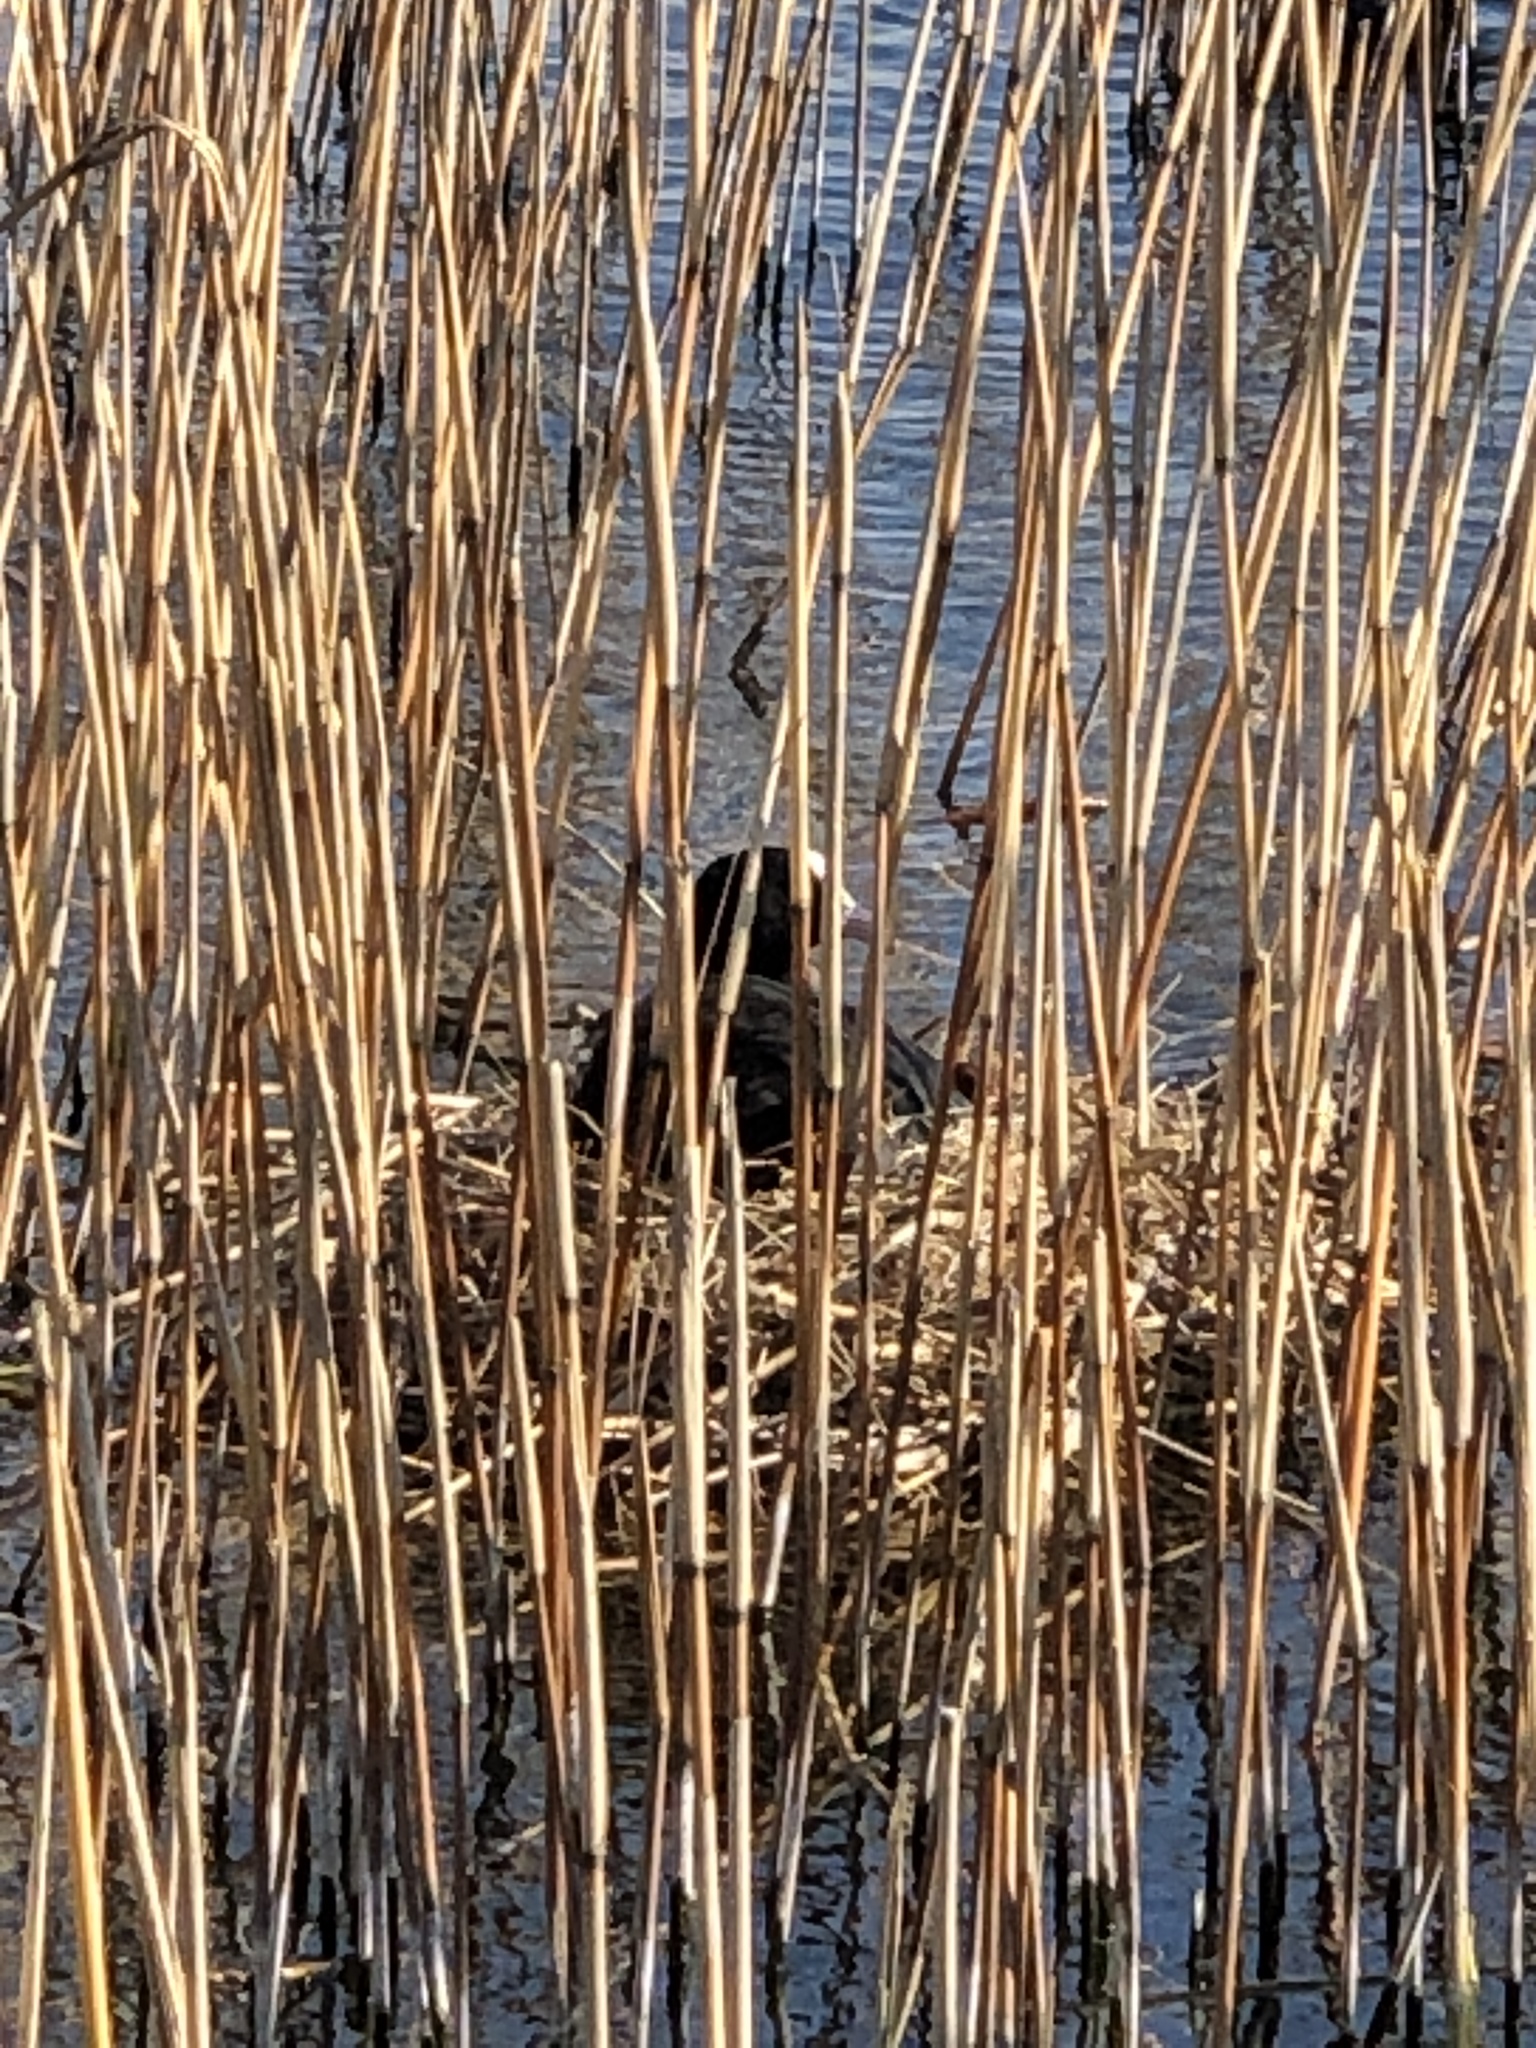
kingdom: Animalia
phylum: Chordata
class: Aves
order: Gruiformes
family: Rallidae
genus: Fulica
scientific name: Fulica atra
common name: Eurasian coot
